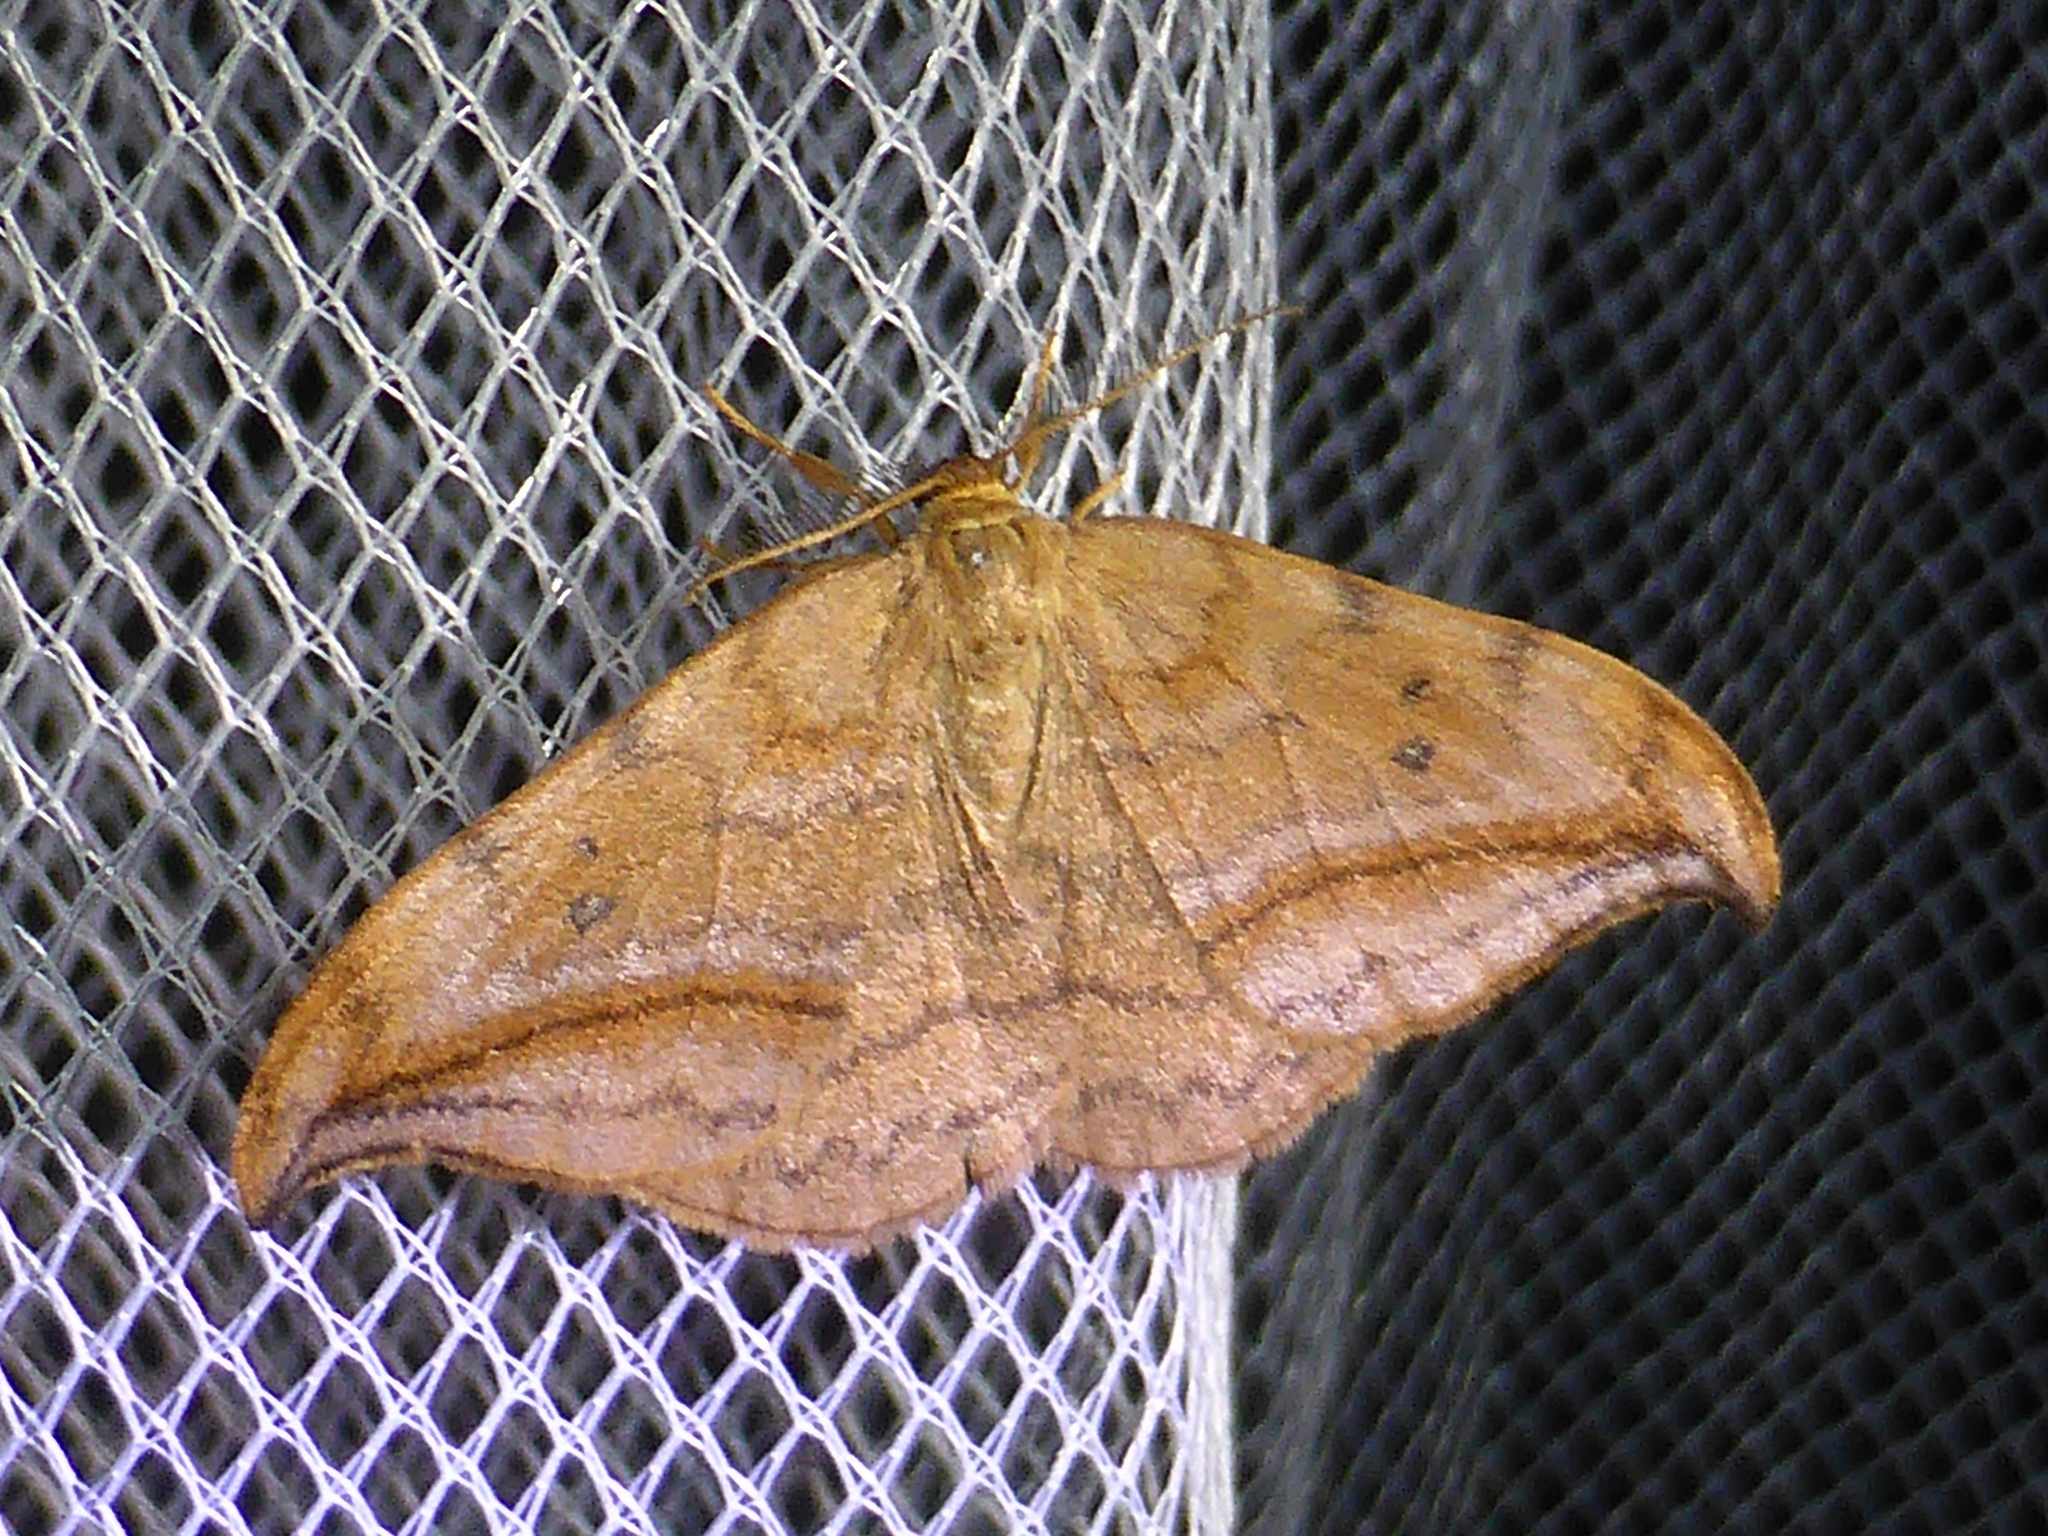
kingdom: Animalia
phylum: Arthropoda
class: Insecta
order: Lepidoptera
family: Drepanidae
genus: Drepana
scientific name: Drepana curvatula
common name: Dusky hook-tip
